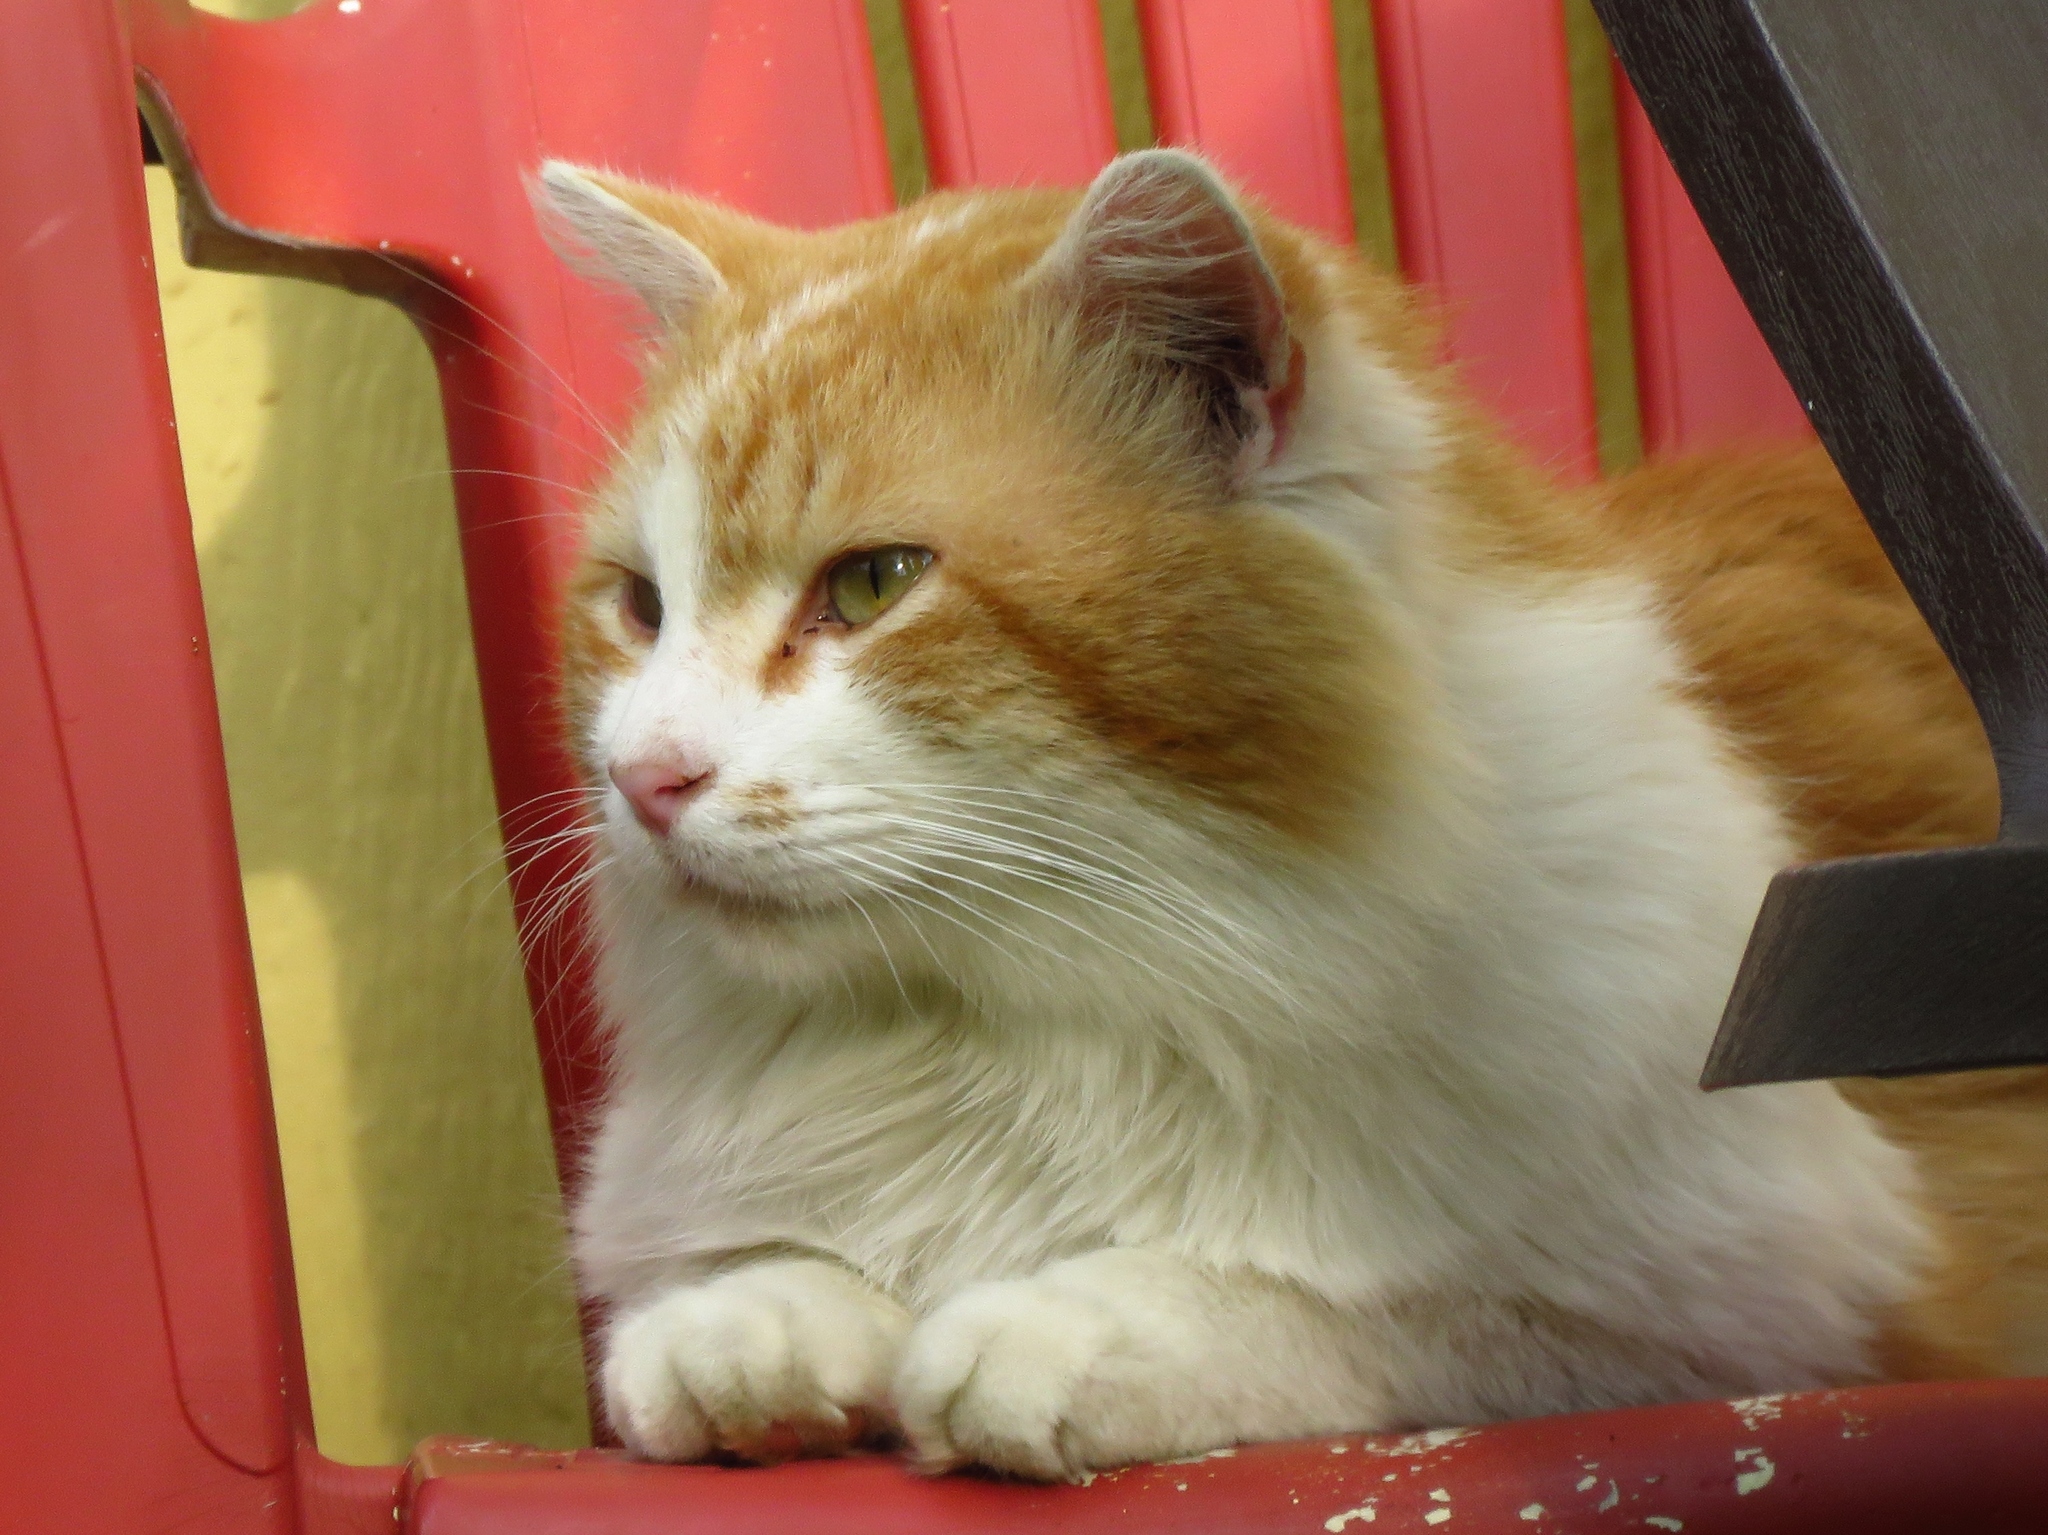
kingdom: Animalia
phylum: Chordata
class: Mammalia
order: Carnivora
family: Felidae
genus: Felis
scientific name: Felis catus
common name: Domestic cat
